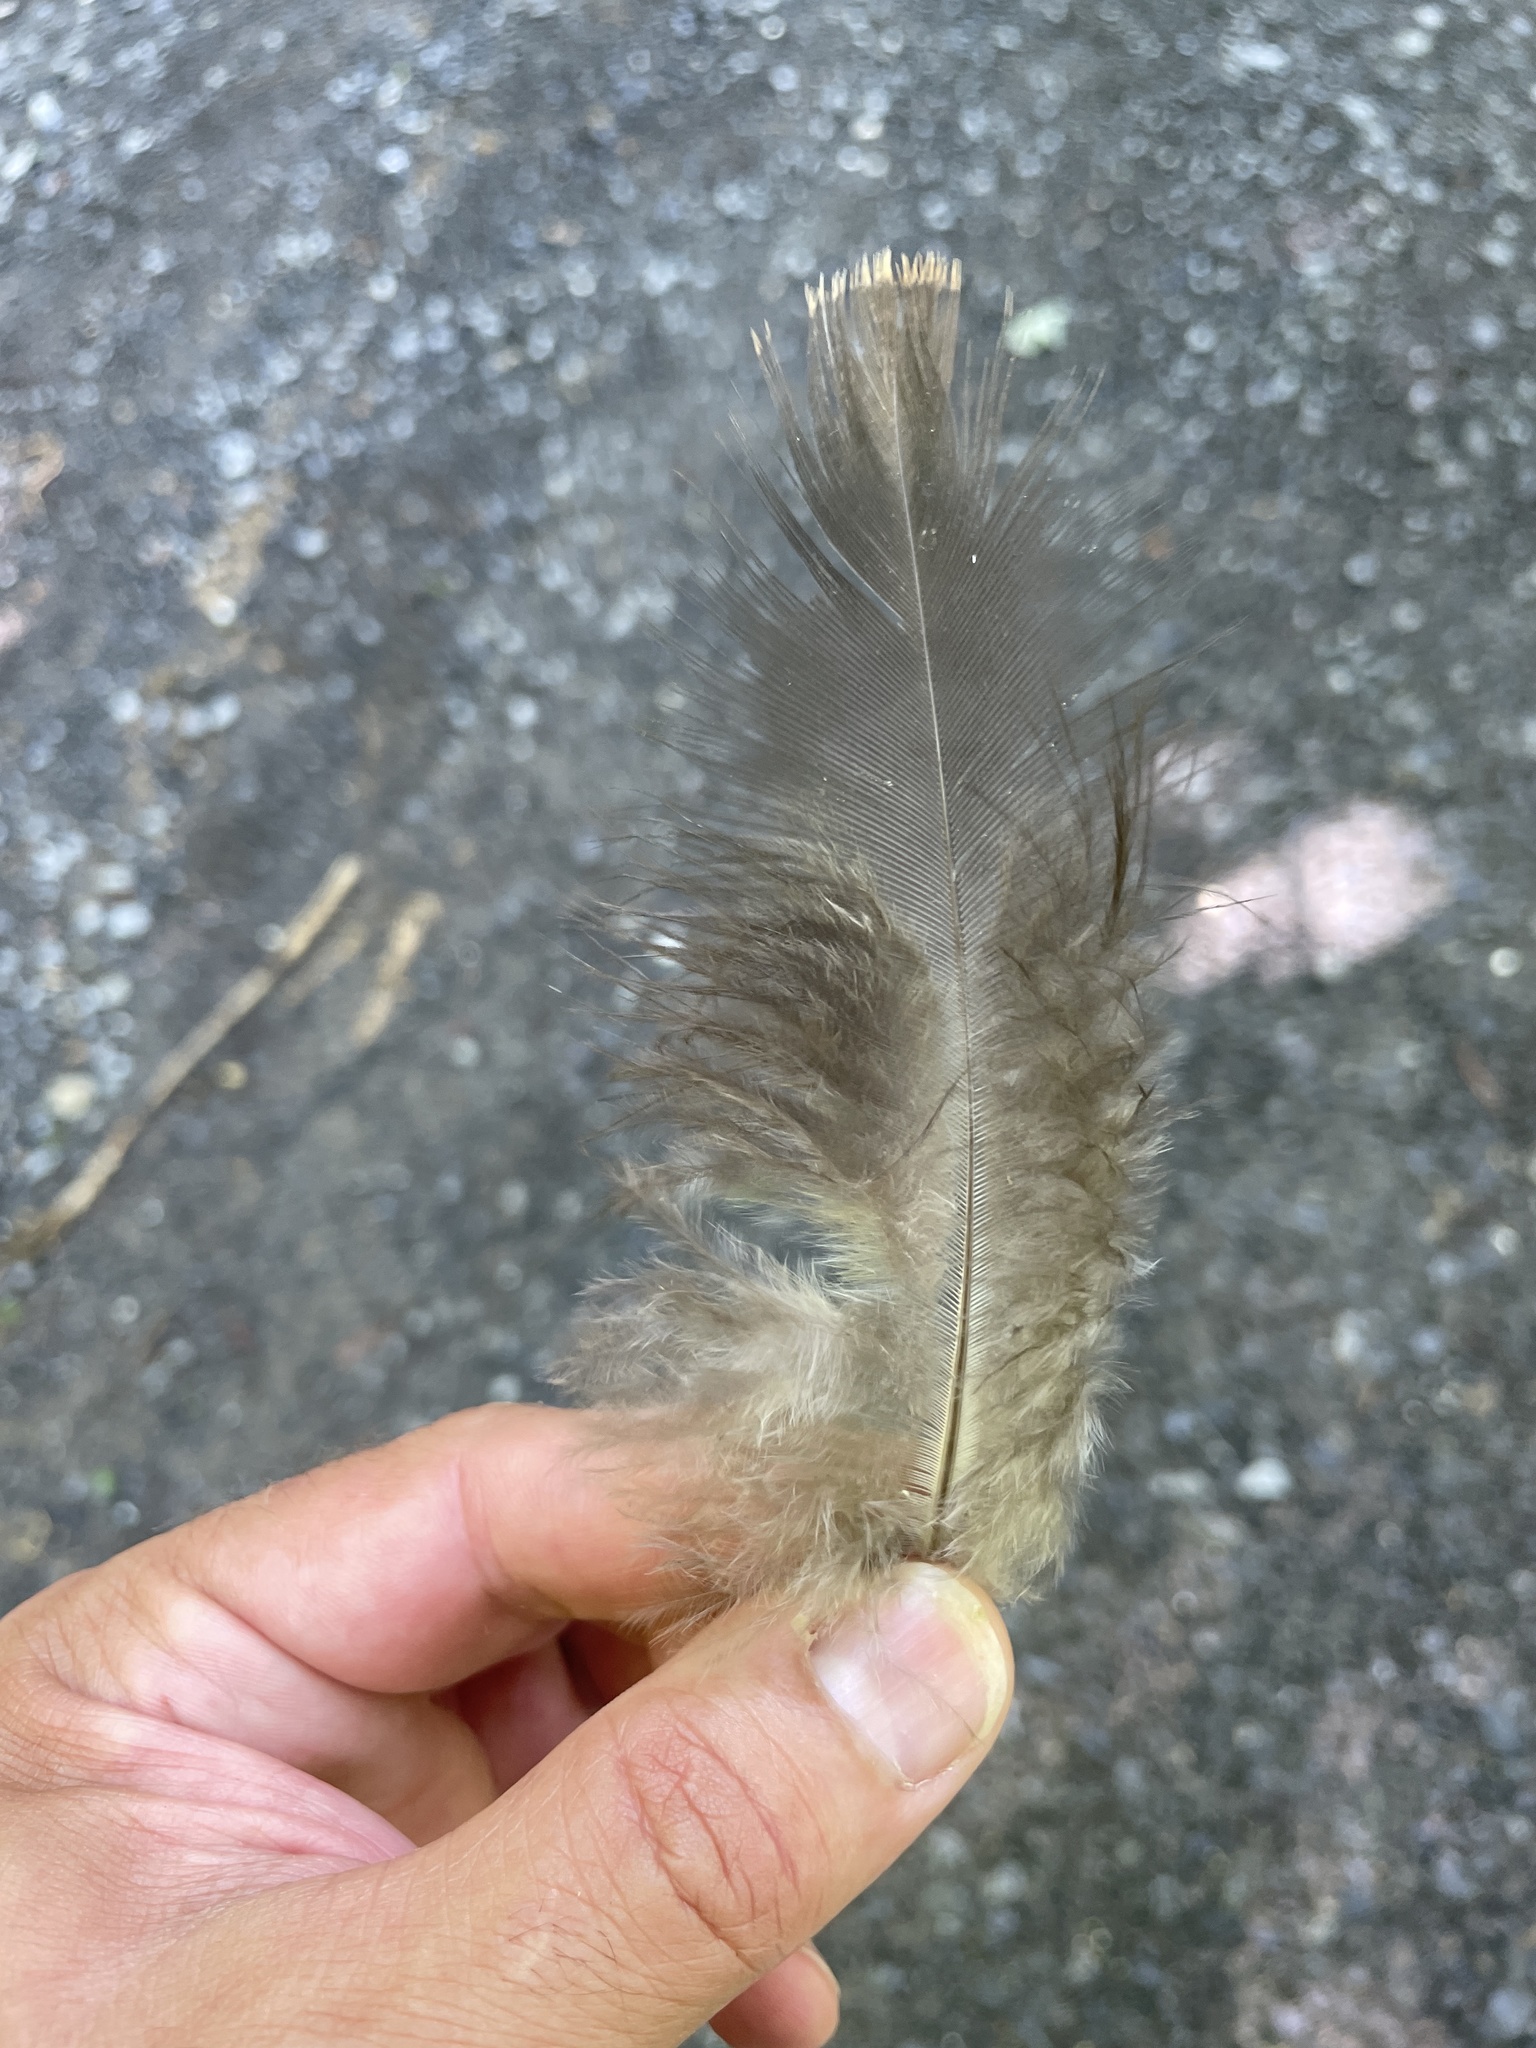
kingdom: Animalia
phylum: Chordata
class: Aves
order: Galliformes
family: Phasianidae
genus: Meleagris
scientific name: Meleagris gallopavo
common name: Wild turkey
